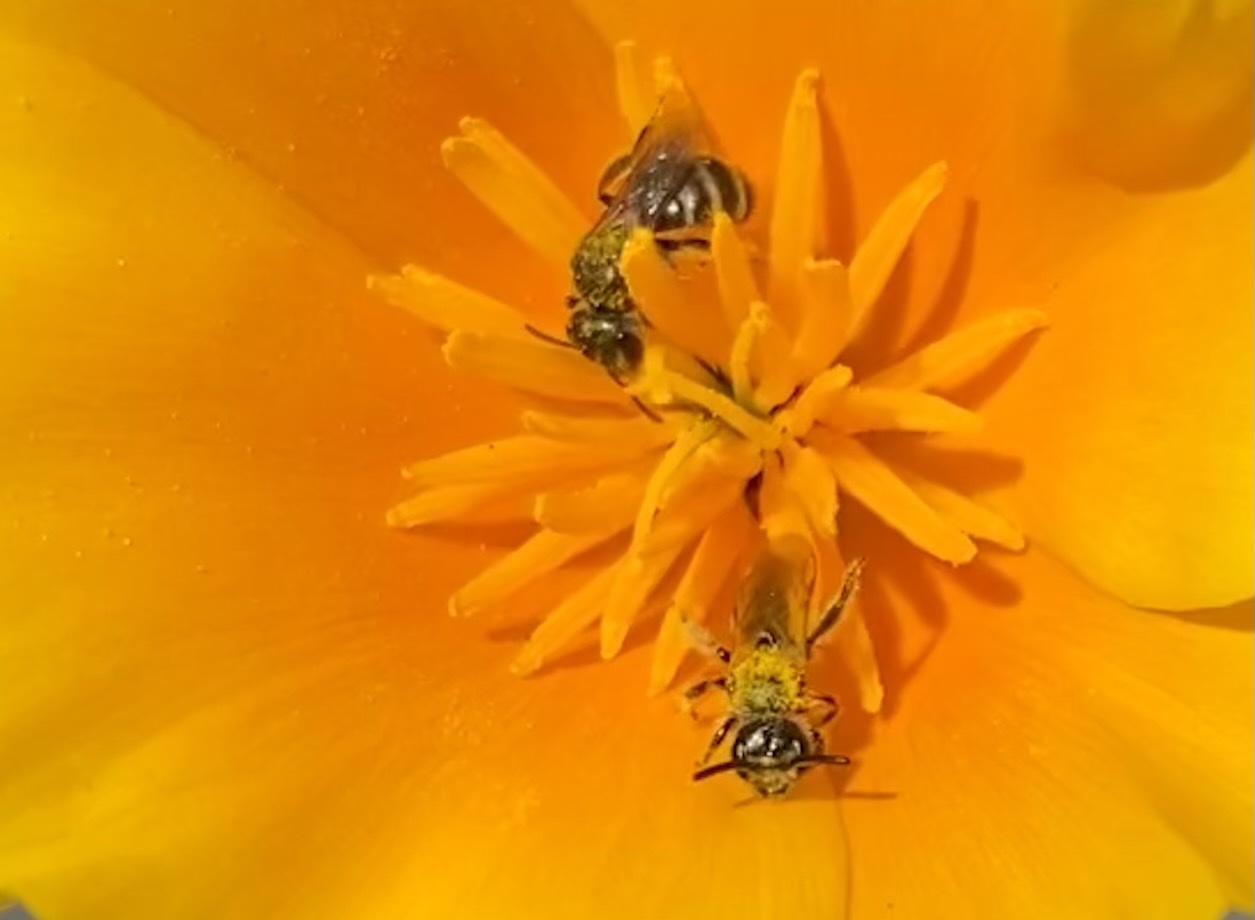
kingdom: Animalia
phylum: Arthropoda
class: Insecta
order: Hymenoptera
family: Halictidae
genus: Halictus
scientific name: Halictus tripartitus
